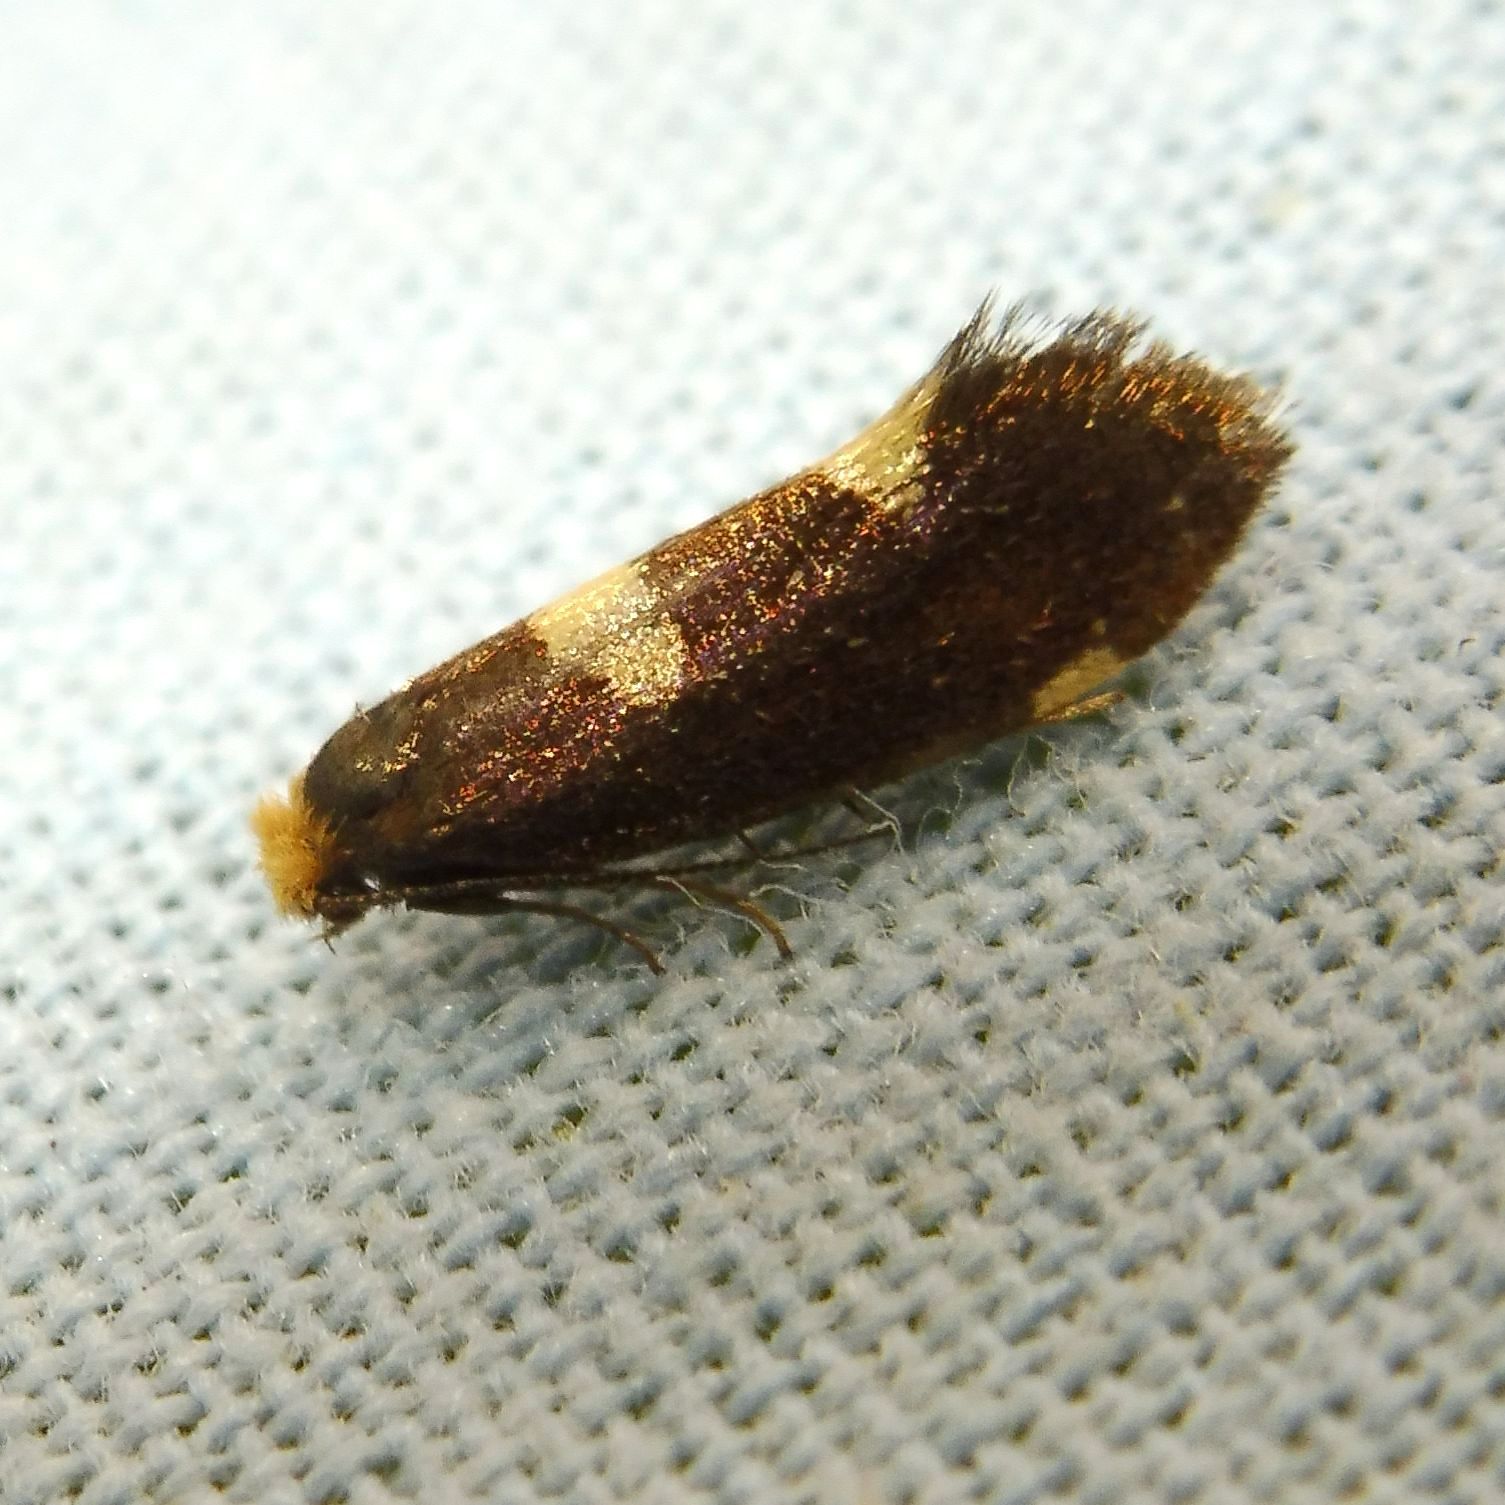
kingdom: Animalia
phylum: Arthropoda
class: Insecta
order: Lepidoptera
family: Incurvariidae
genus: Lampronia
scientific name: Lampronia oehlmaniella
